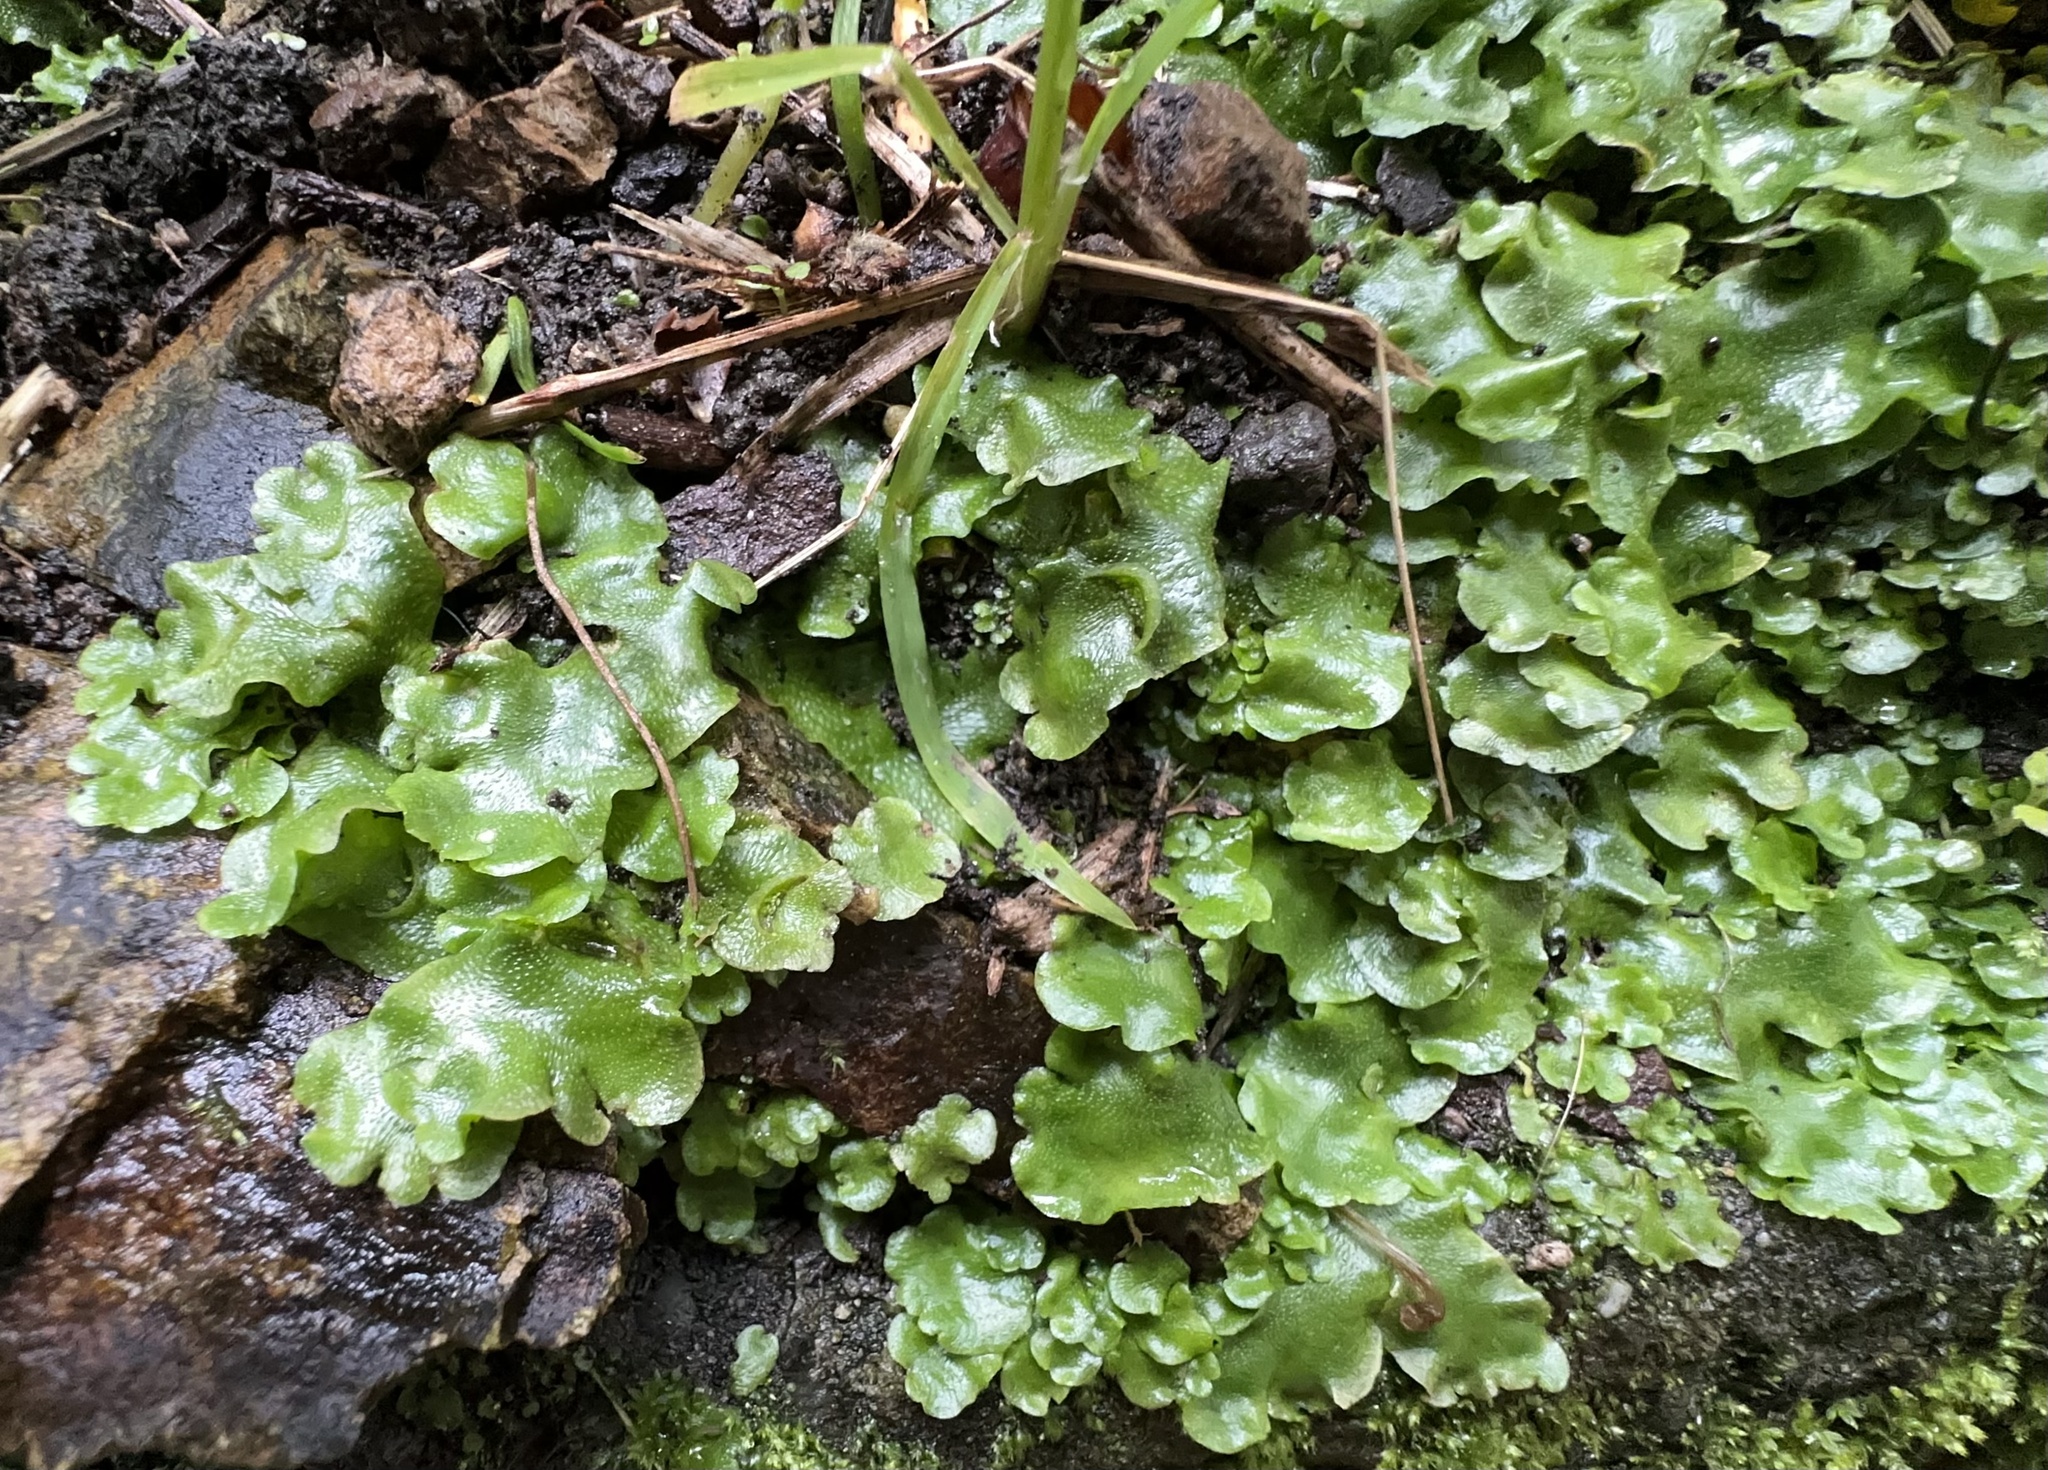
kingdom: Plantae
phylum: Marchantiophyta
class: Marchantiopsida
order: Lunulariales
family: Lunulariaceae
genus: Lunularia
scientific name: Lunularia cruciata
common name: Crescent-cup liverwort
